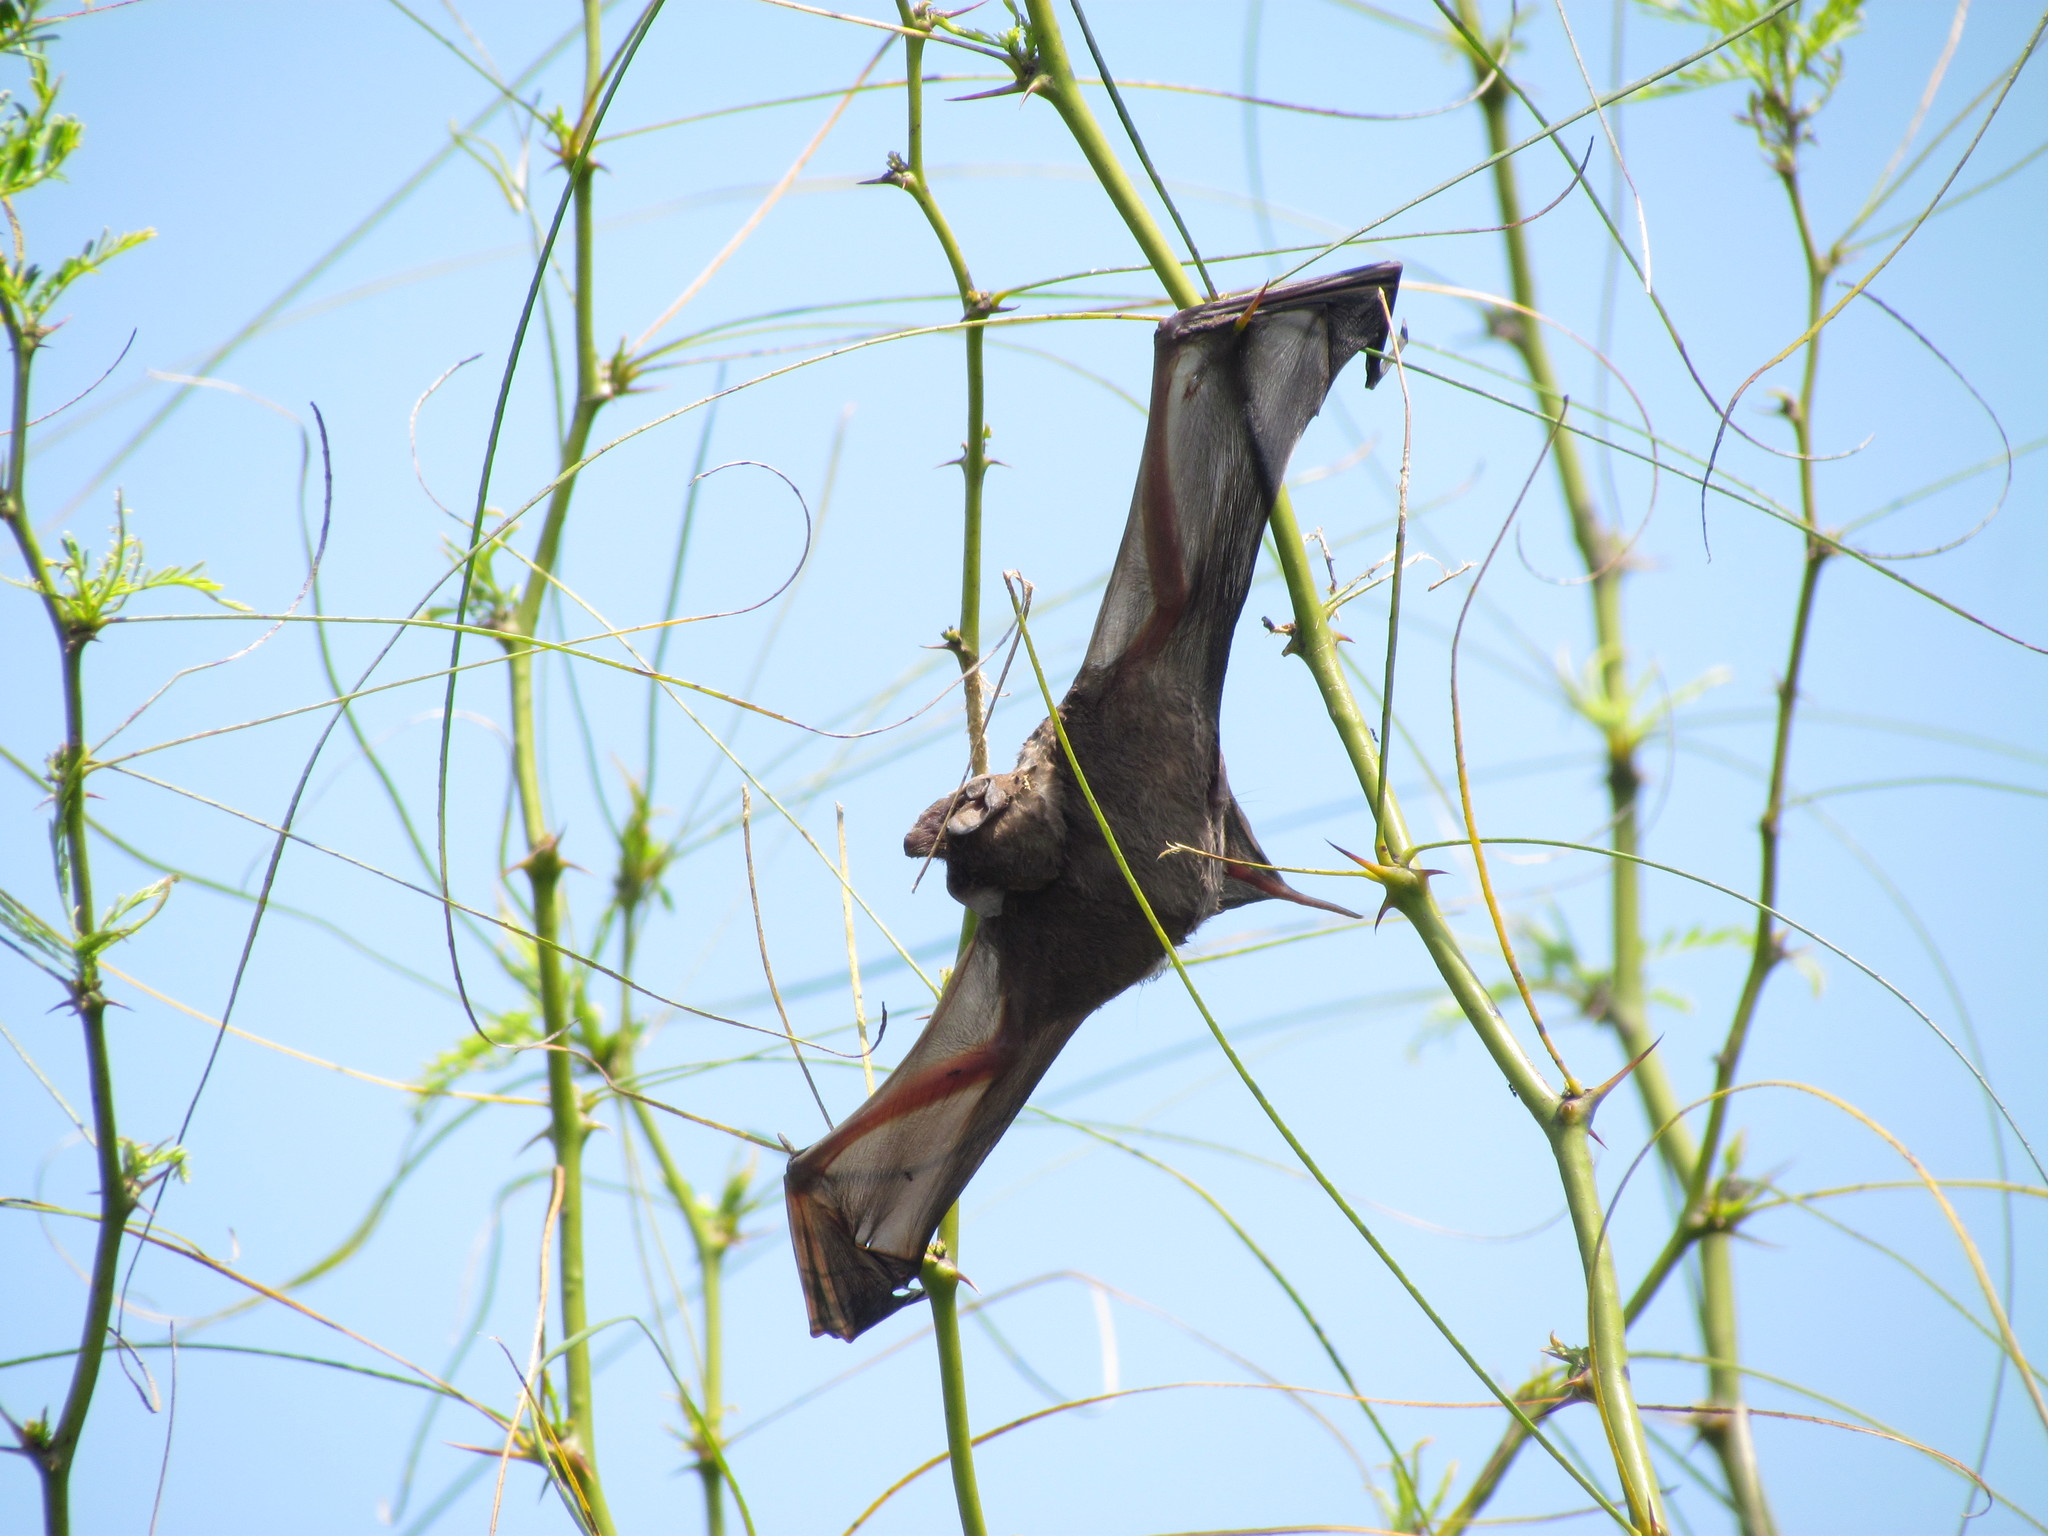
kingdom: Animalia
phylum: Chordata
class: Mammalia
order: Chiroptera
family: Molossidae
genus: Tadarida
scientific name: Tadarida brasiliensis
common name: Mexican free-tailed bat
